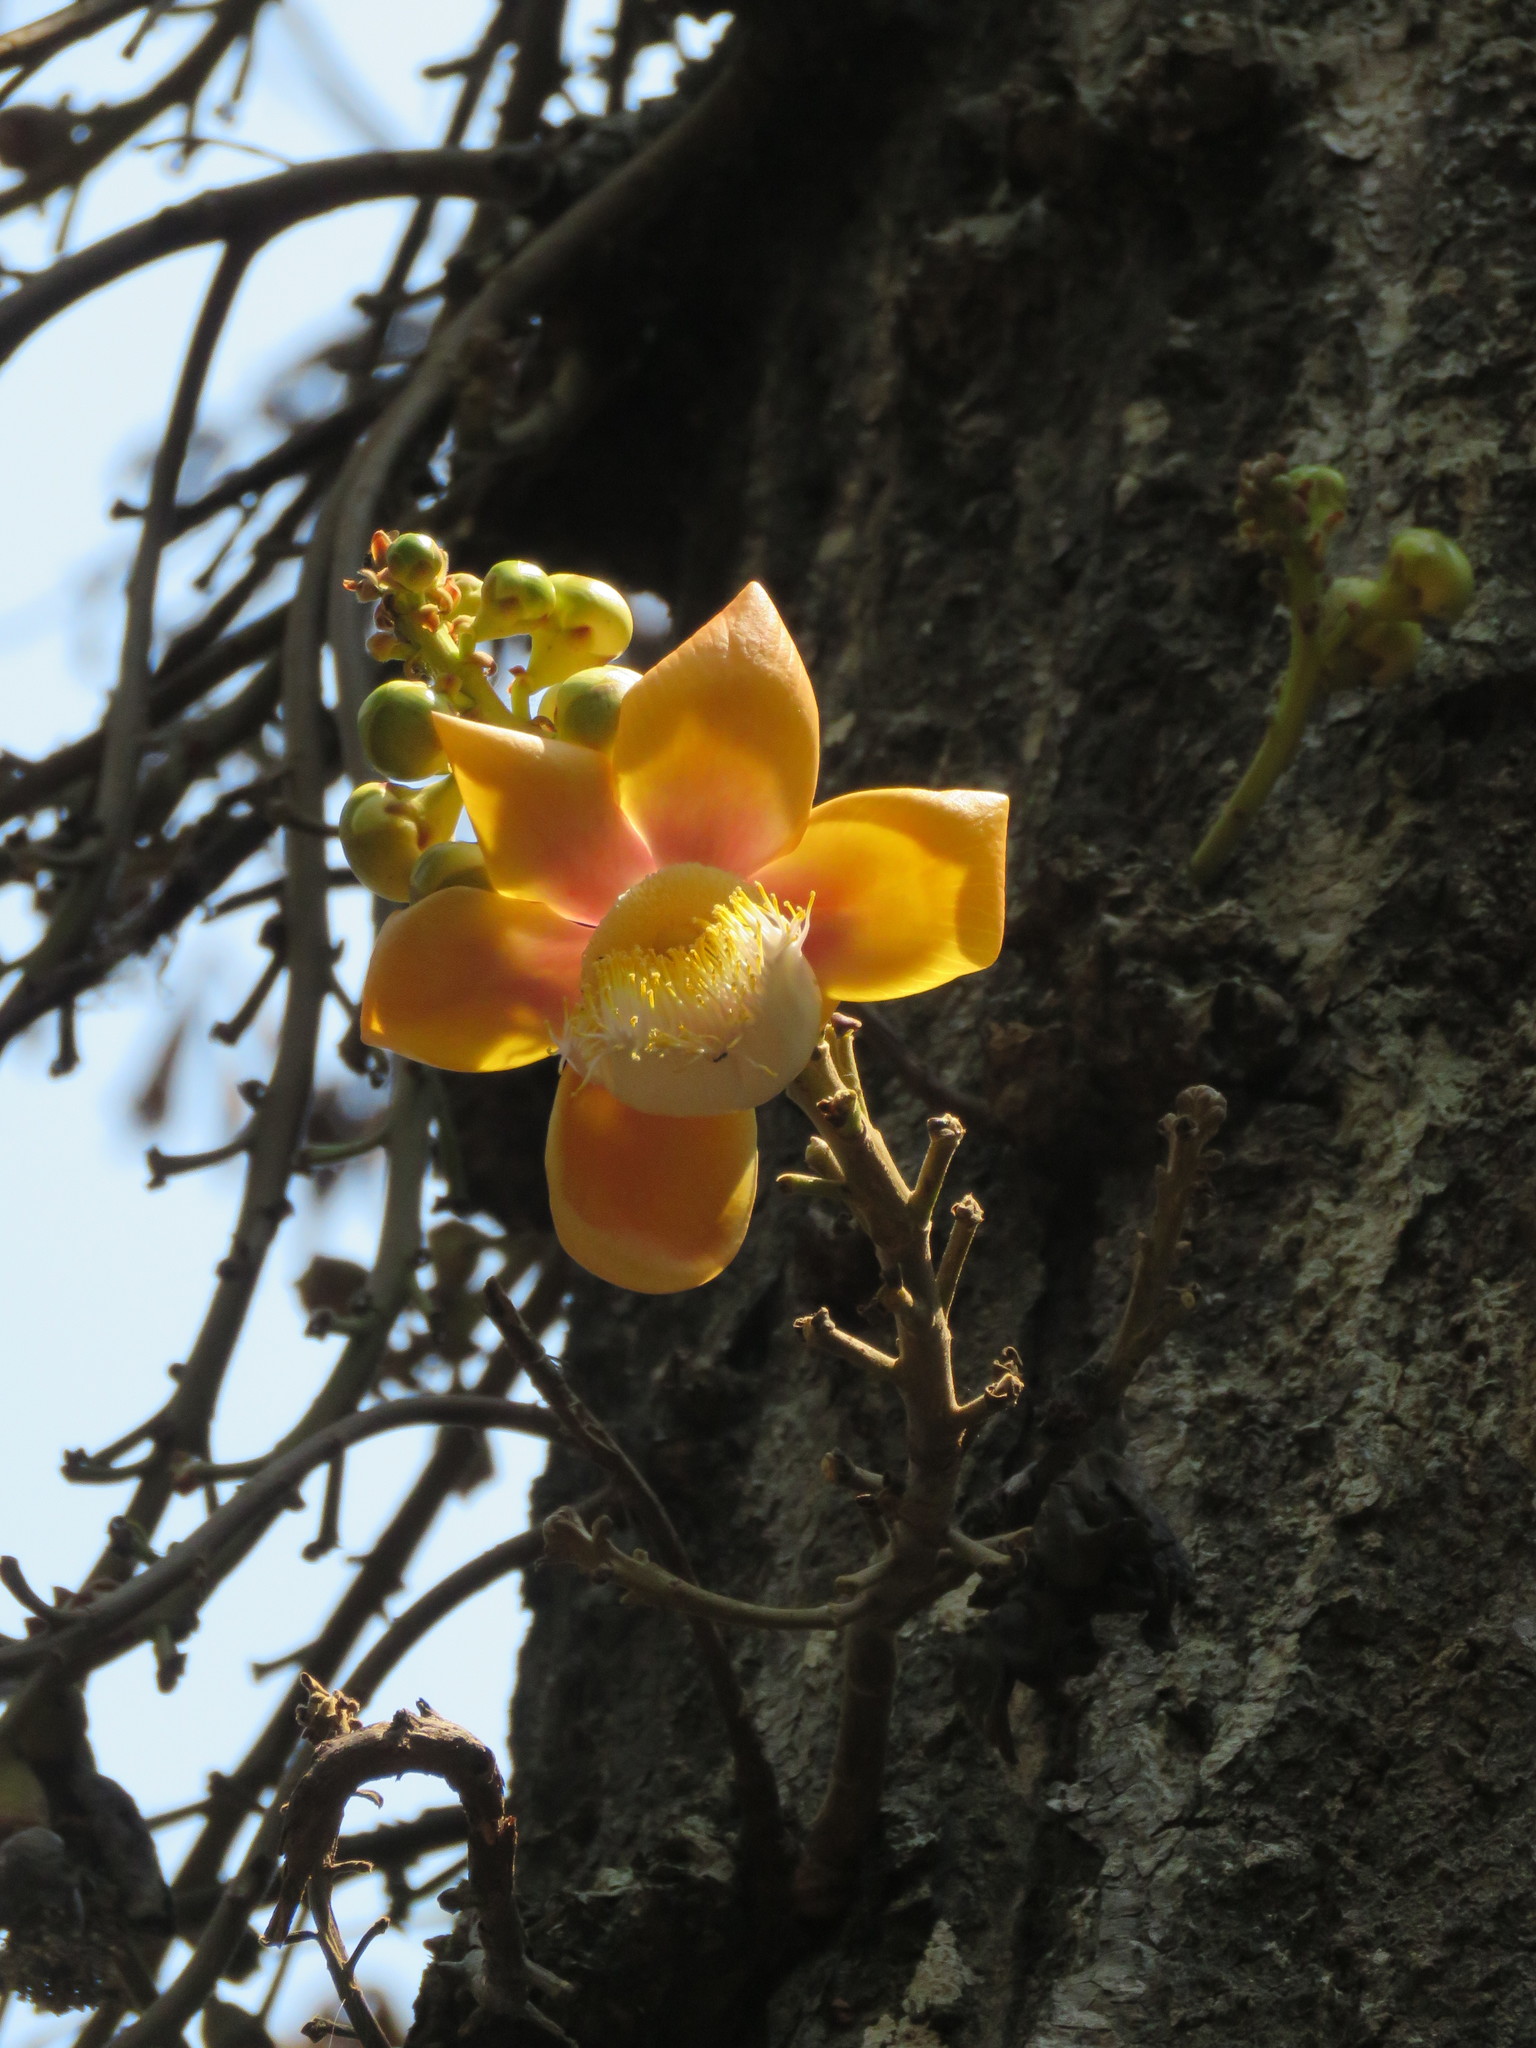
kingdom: Plantae
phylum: Tracheophyta
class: Magnoliopsida
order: Ericales
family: Lecythidaceae
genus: Couroupita
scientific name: Couroupita guianensis
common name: Cannonball tree
